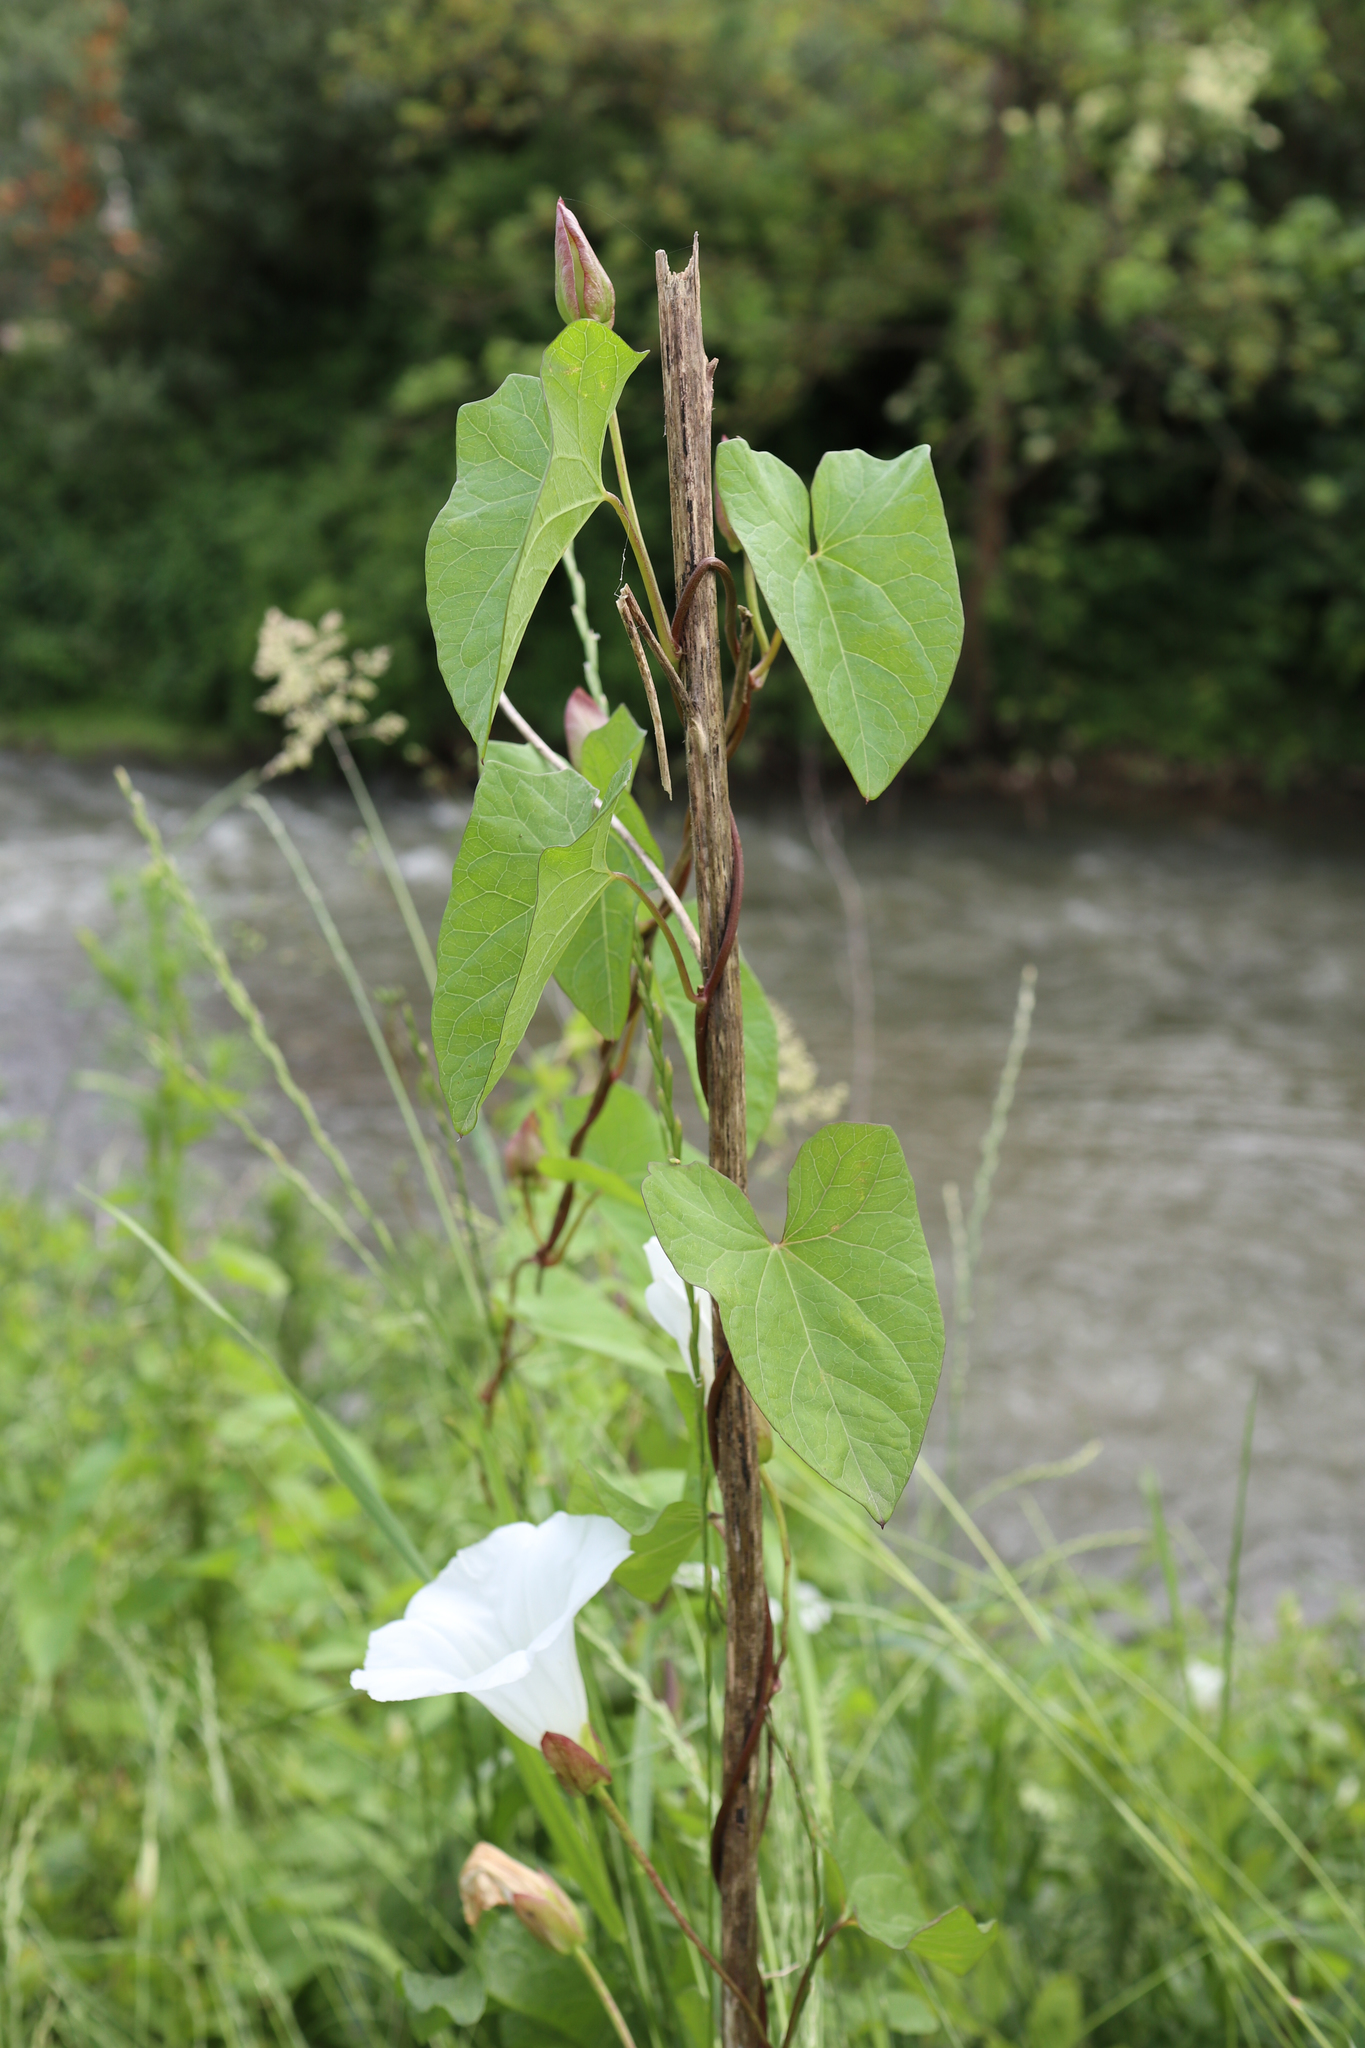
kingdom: Plantae
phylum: Tracheophyta
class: Magnoliopsida
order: Solanales
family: Convolvulaceae
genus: Calystegia
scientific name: Calystegia sepium
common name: Hedge bindweed
